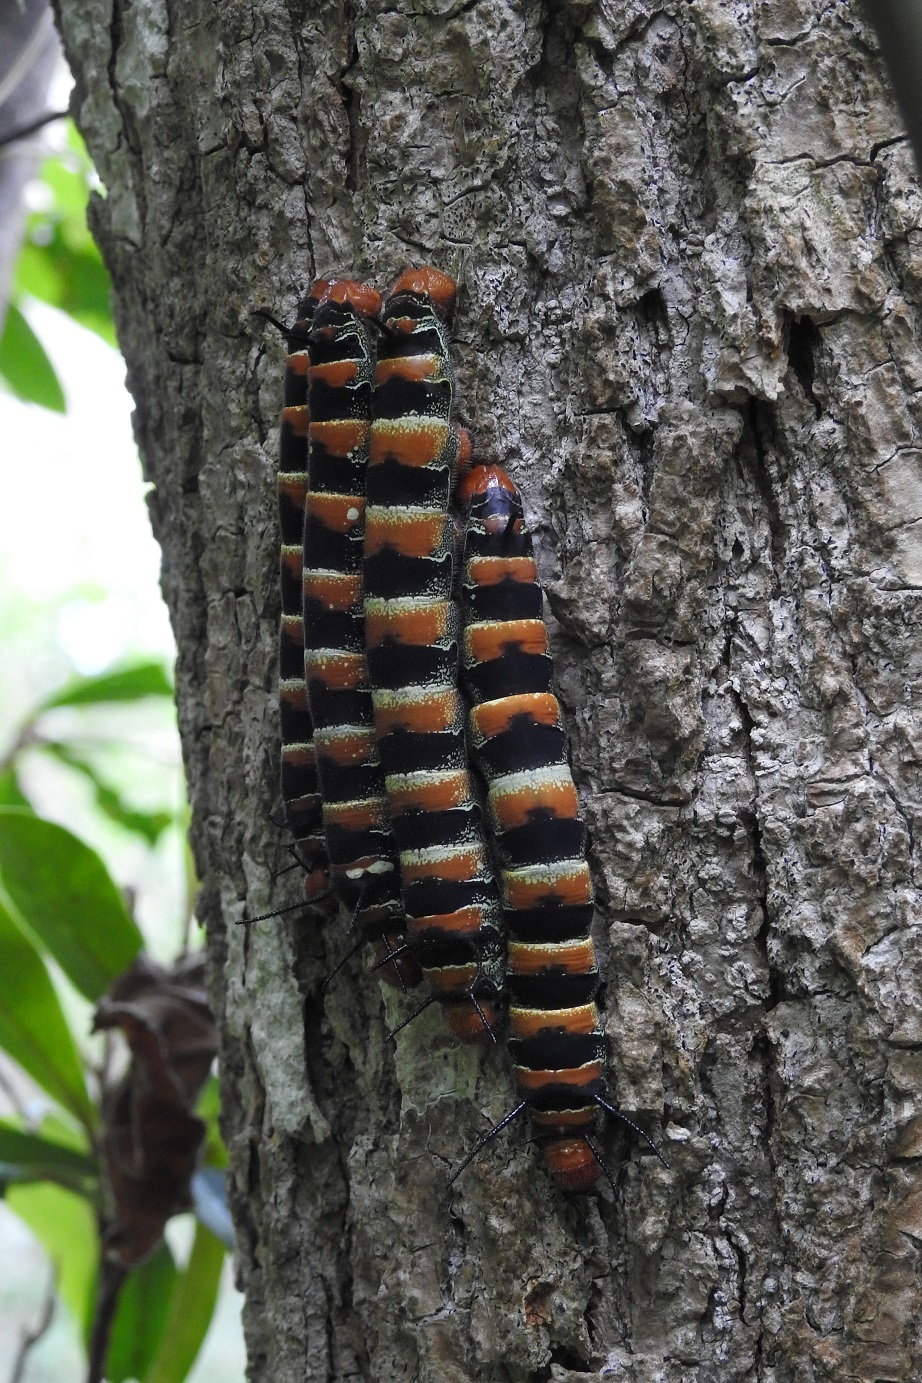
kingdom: Animalia
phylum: Arthropoda
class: Insecta
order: Lepidoptera
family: Saturniidae
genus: Arsenura
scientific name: Arsenura armida
